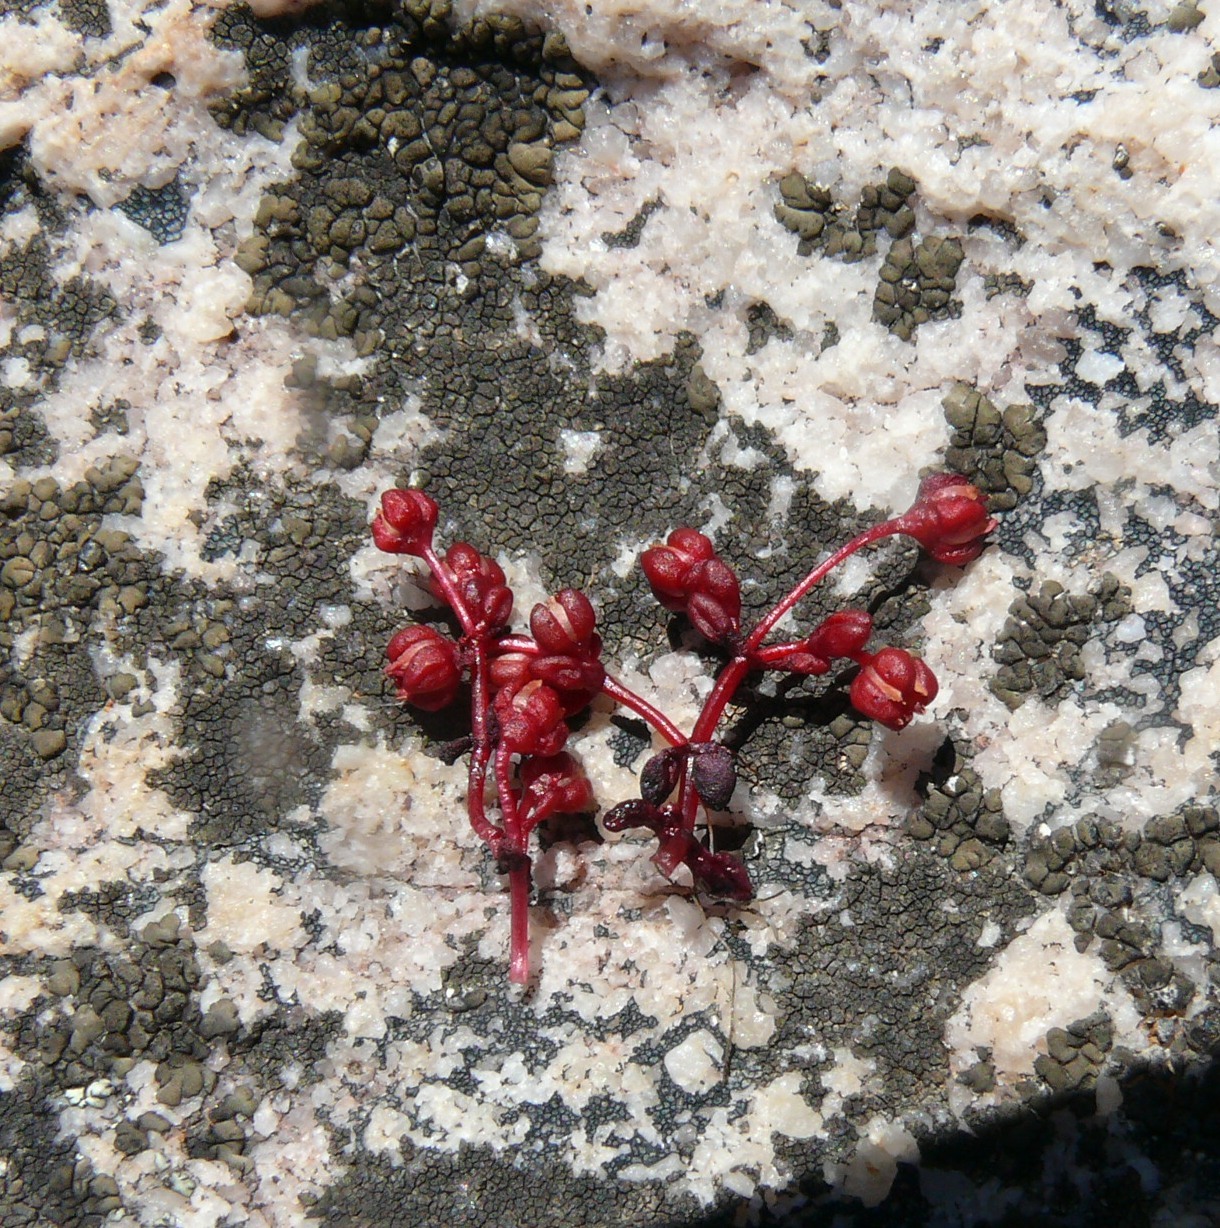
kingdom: Plantae
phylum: Tracheophyta
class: Magnoliopsida
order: Saxifragales
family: Crassulaceae
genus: Crassula
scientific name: Crassula vaillantii
